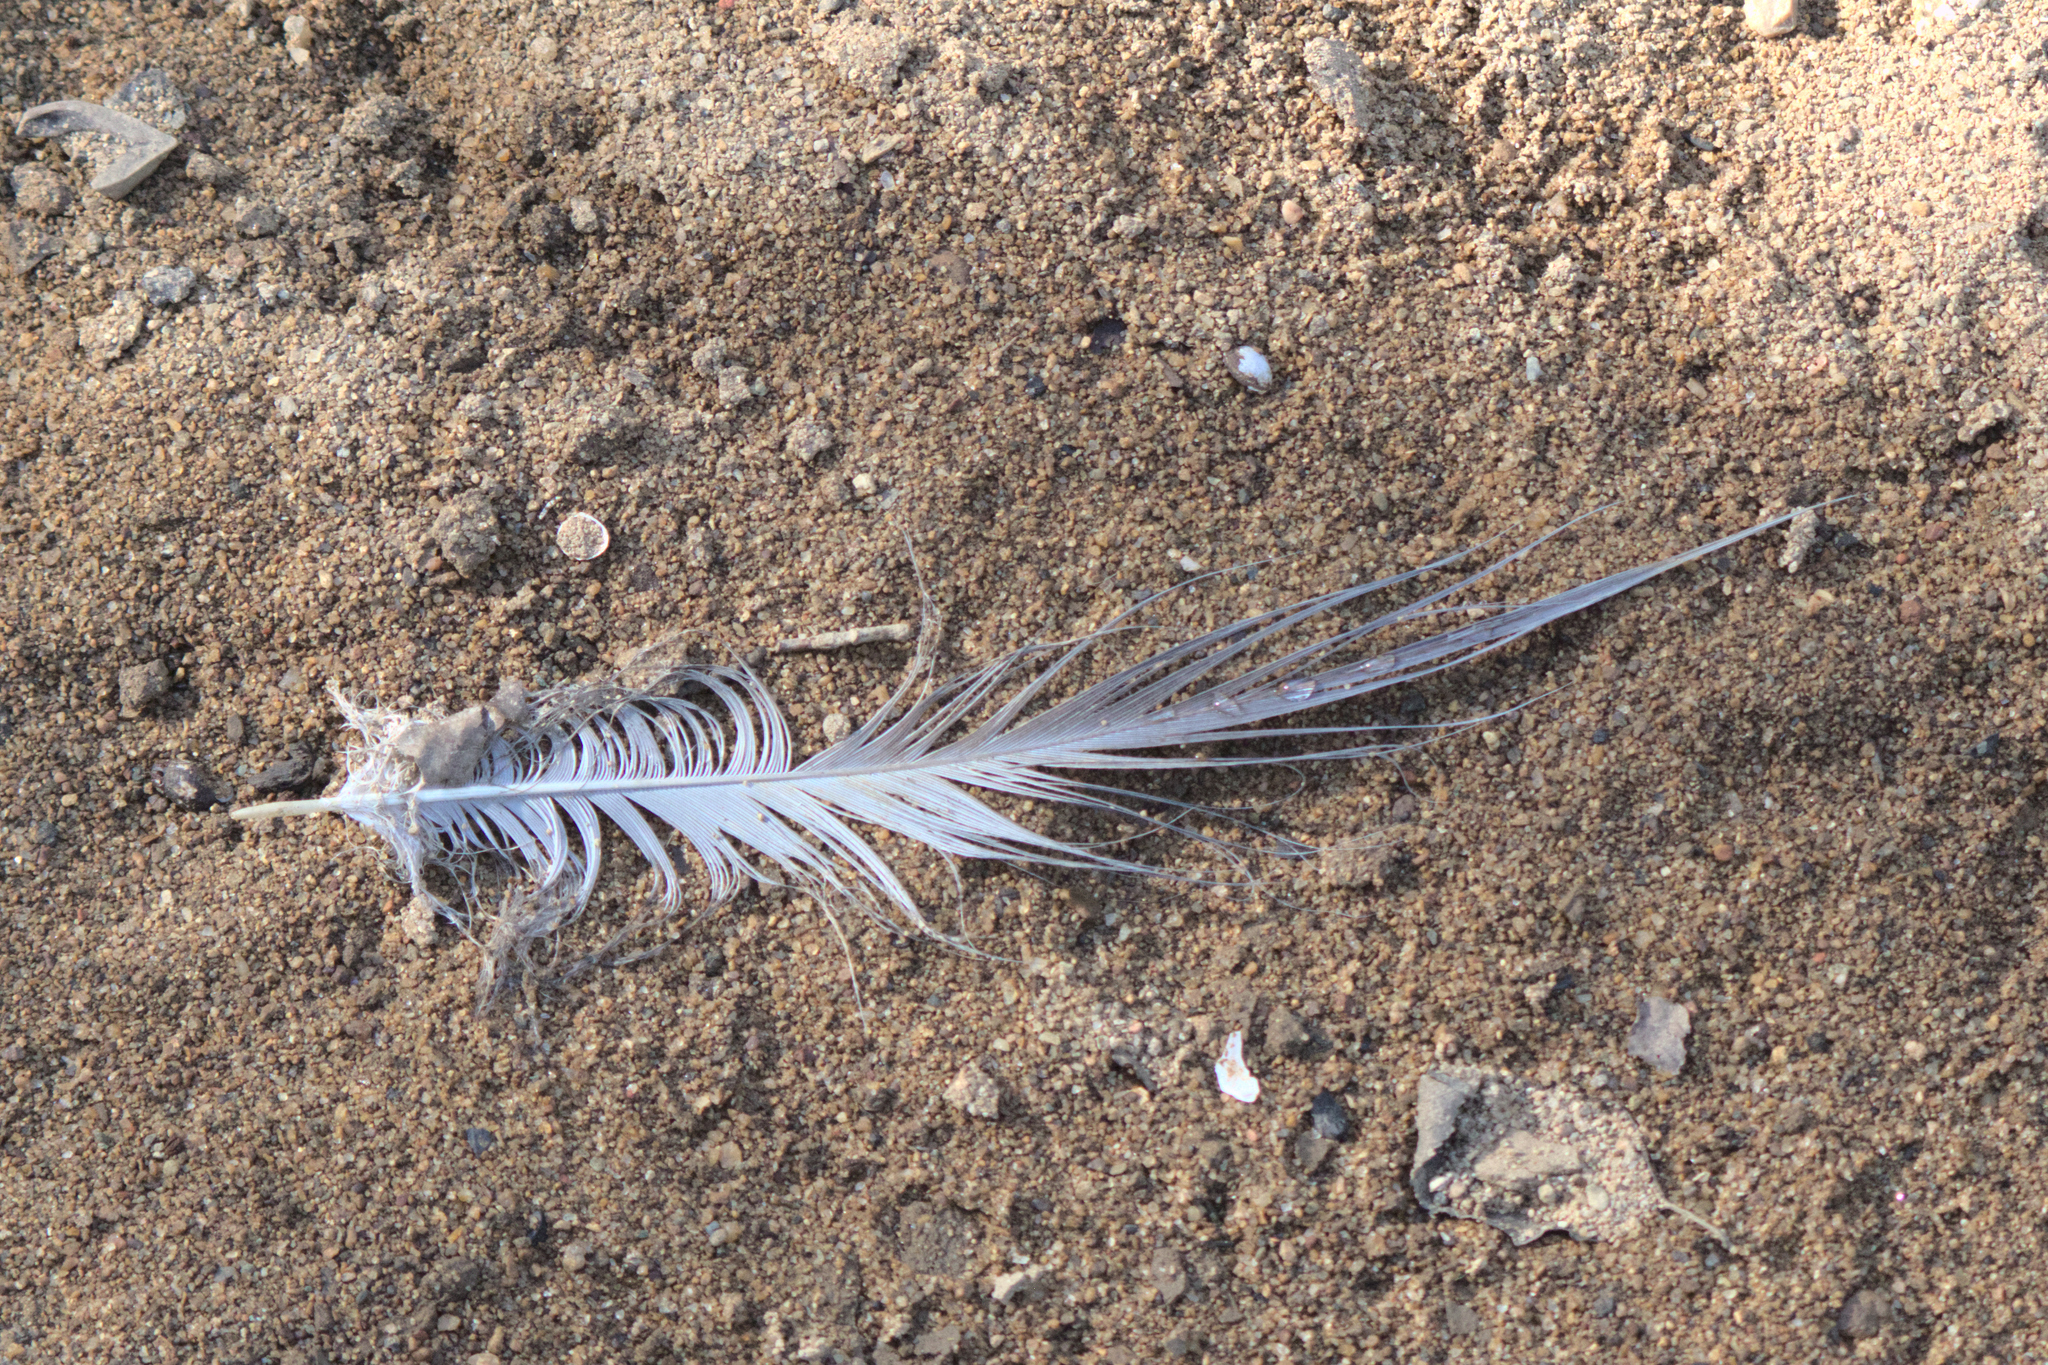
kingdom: Animalia
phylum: Chordata
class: Aves
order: Pelecaniformes
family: Ardeidae
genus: Ardea
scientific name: Ardea herodias
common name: Great blue heron
